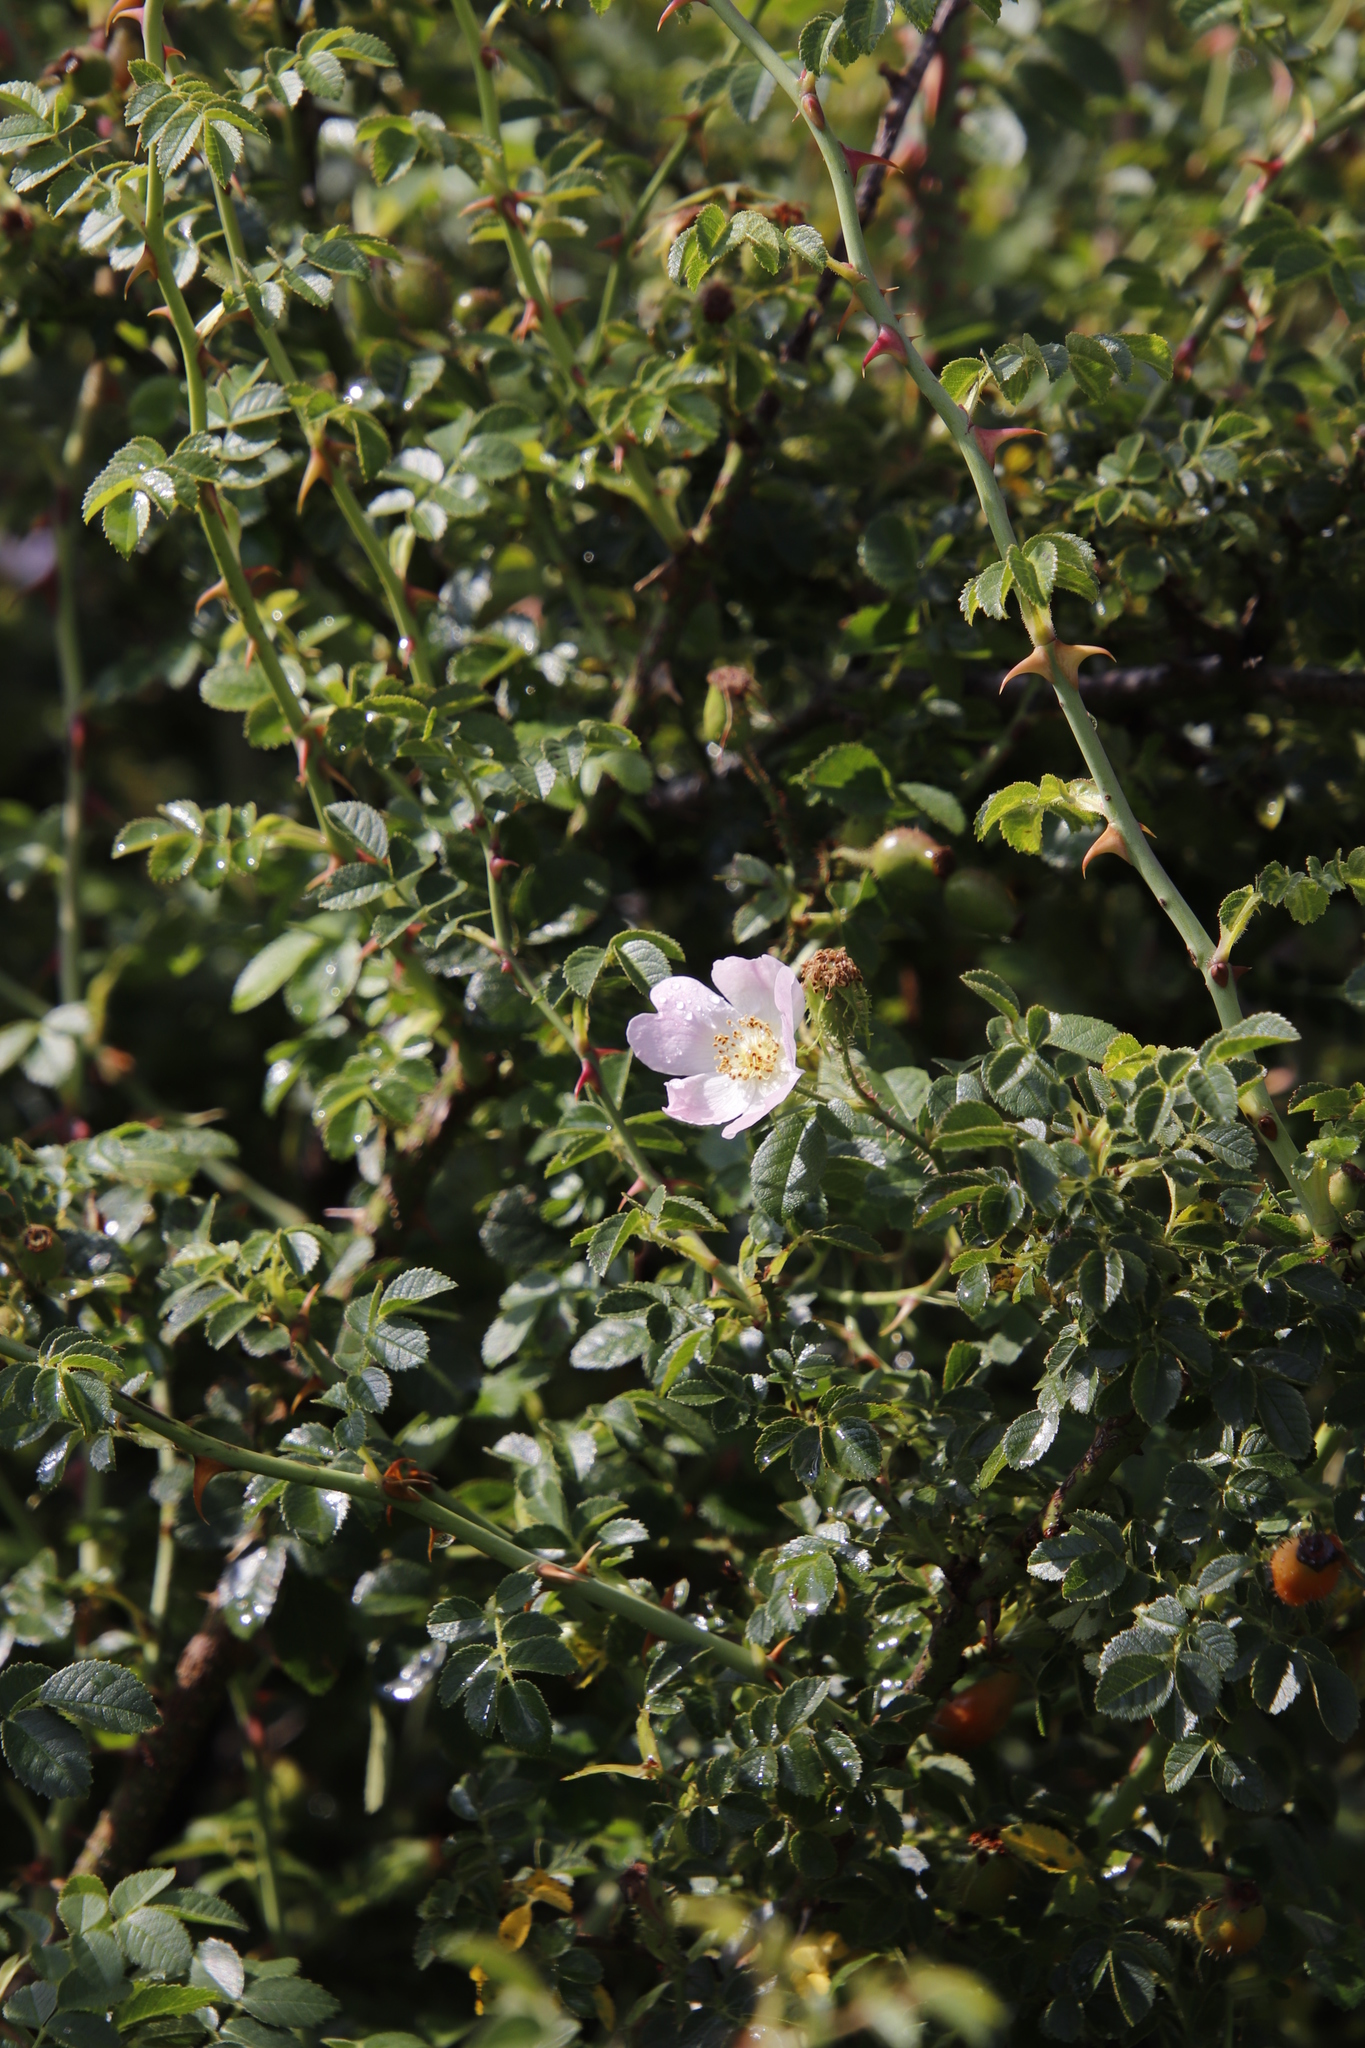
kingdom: Plantae
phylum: Tracheophyta
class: Magnoliopsida
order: Rosales
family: Rosaceae
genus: Rosa
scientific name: Rosa rubiginosa
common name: Sweet-briar
